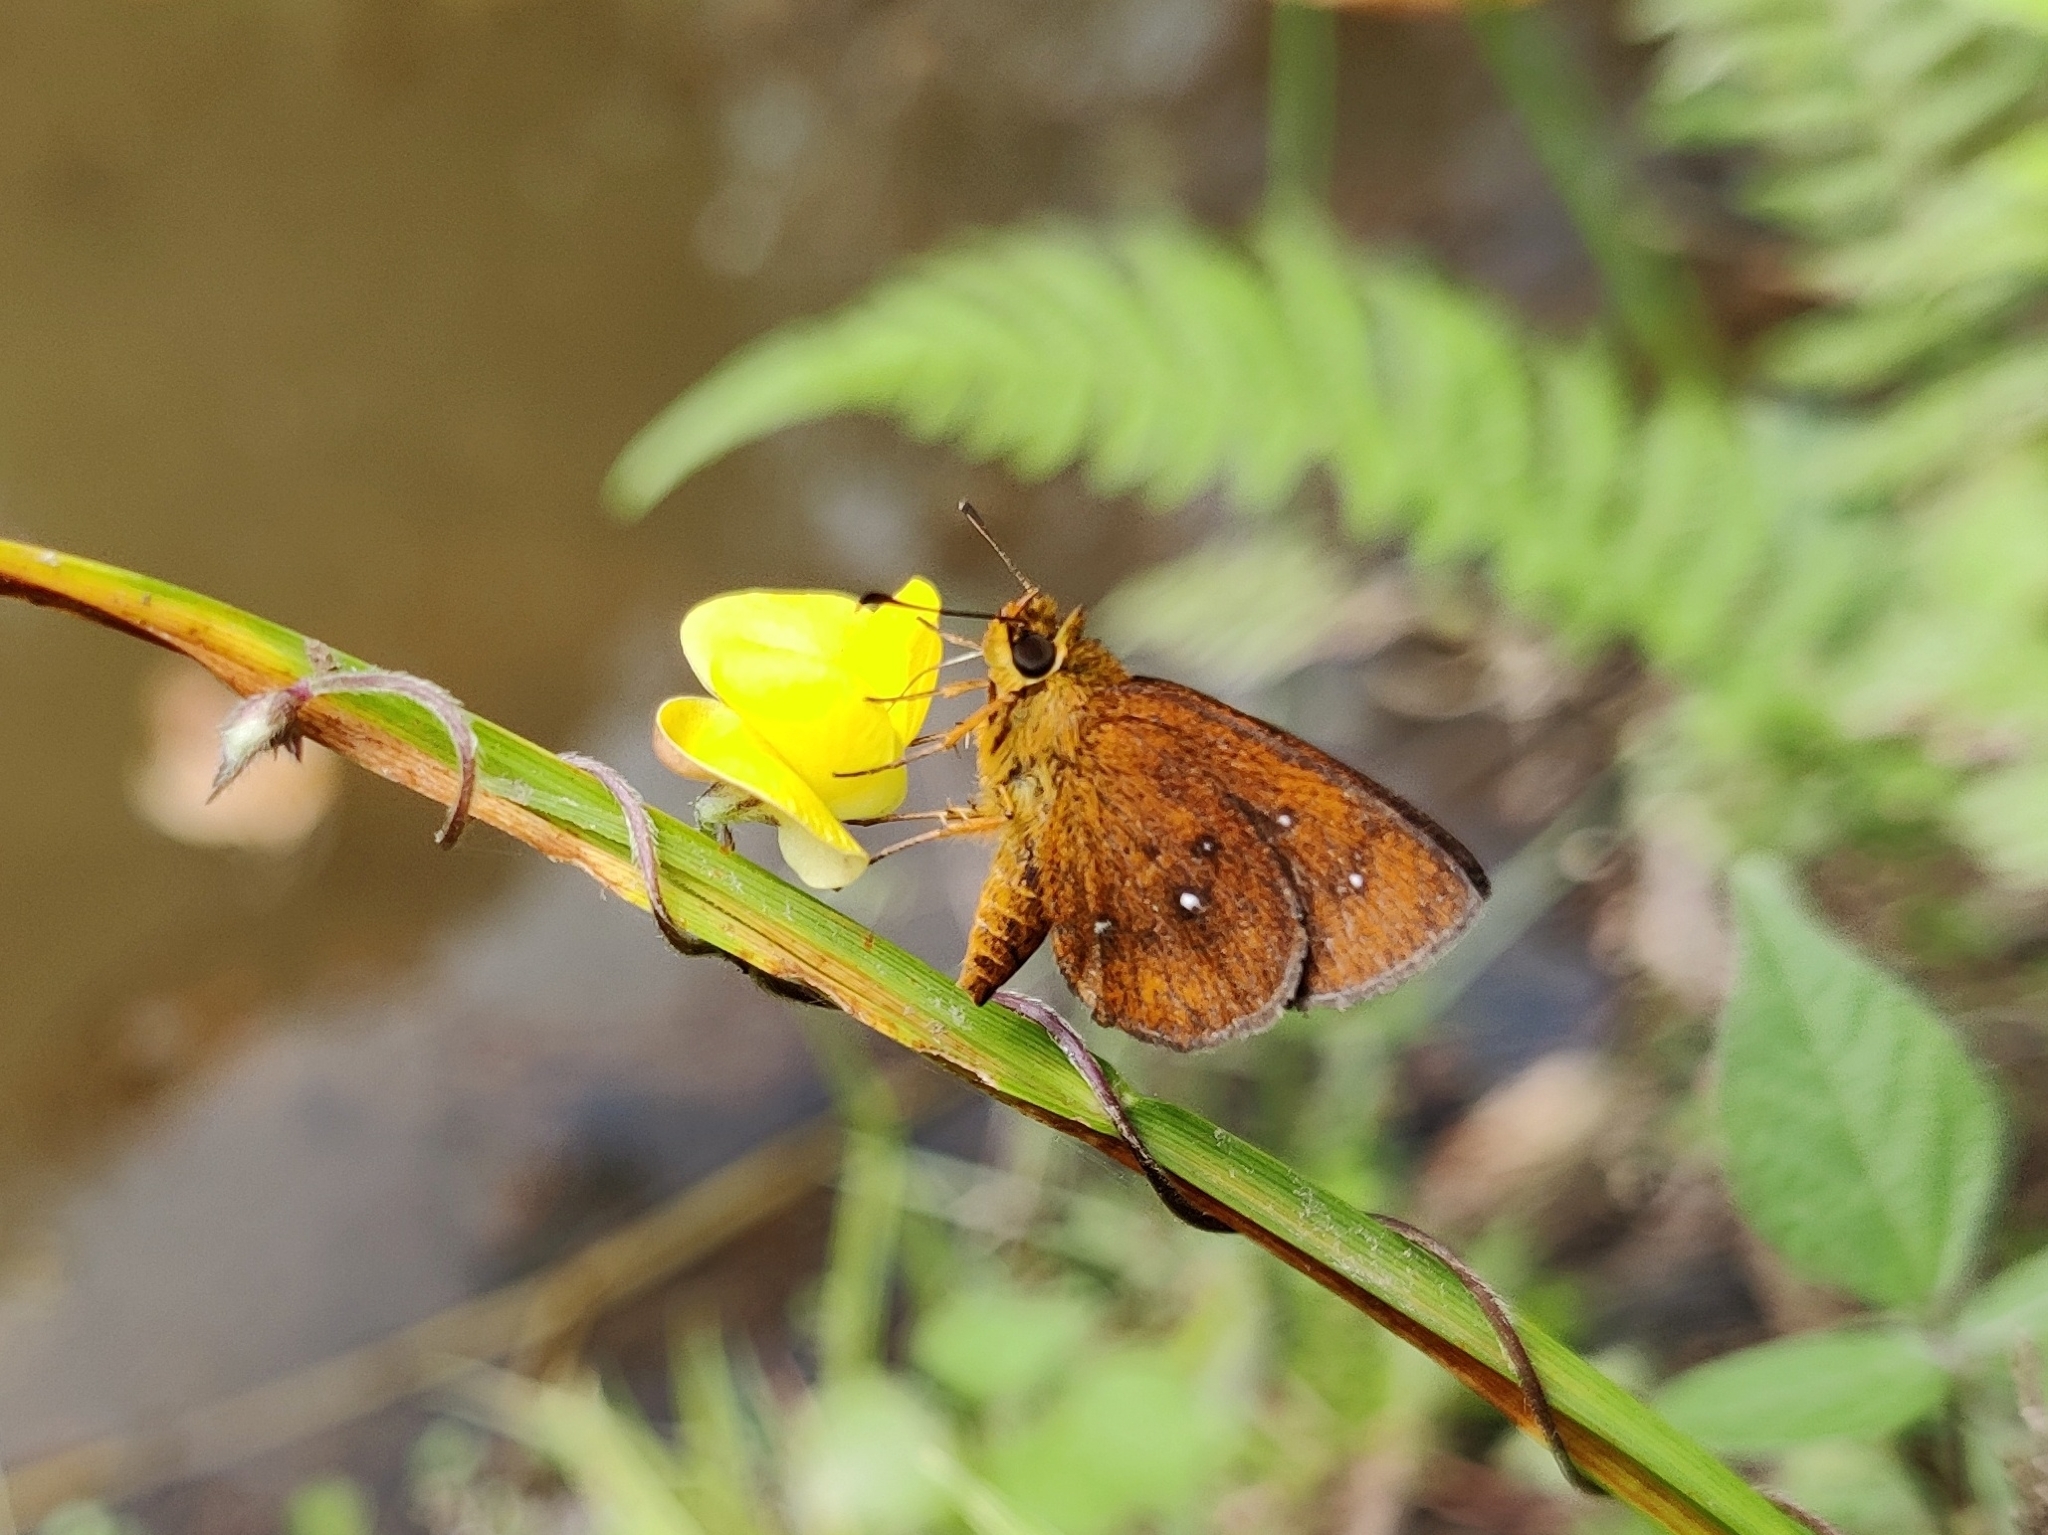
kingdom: Animalia
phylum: Arthropoda
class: Insecta
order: Lepidoptera
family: Hesperiidae
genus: Iambrix
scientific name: Iambrix salsala
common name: Chestnut bob
